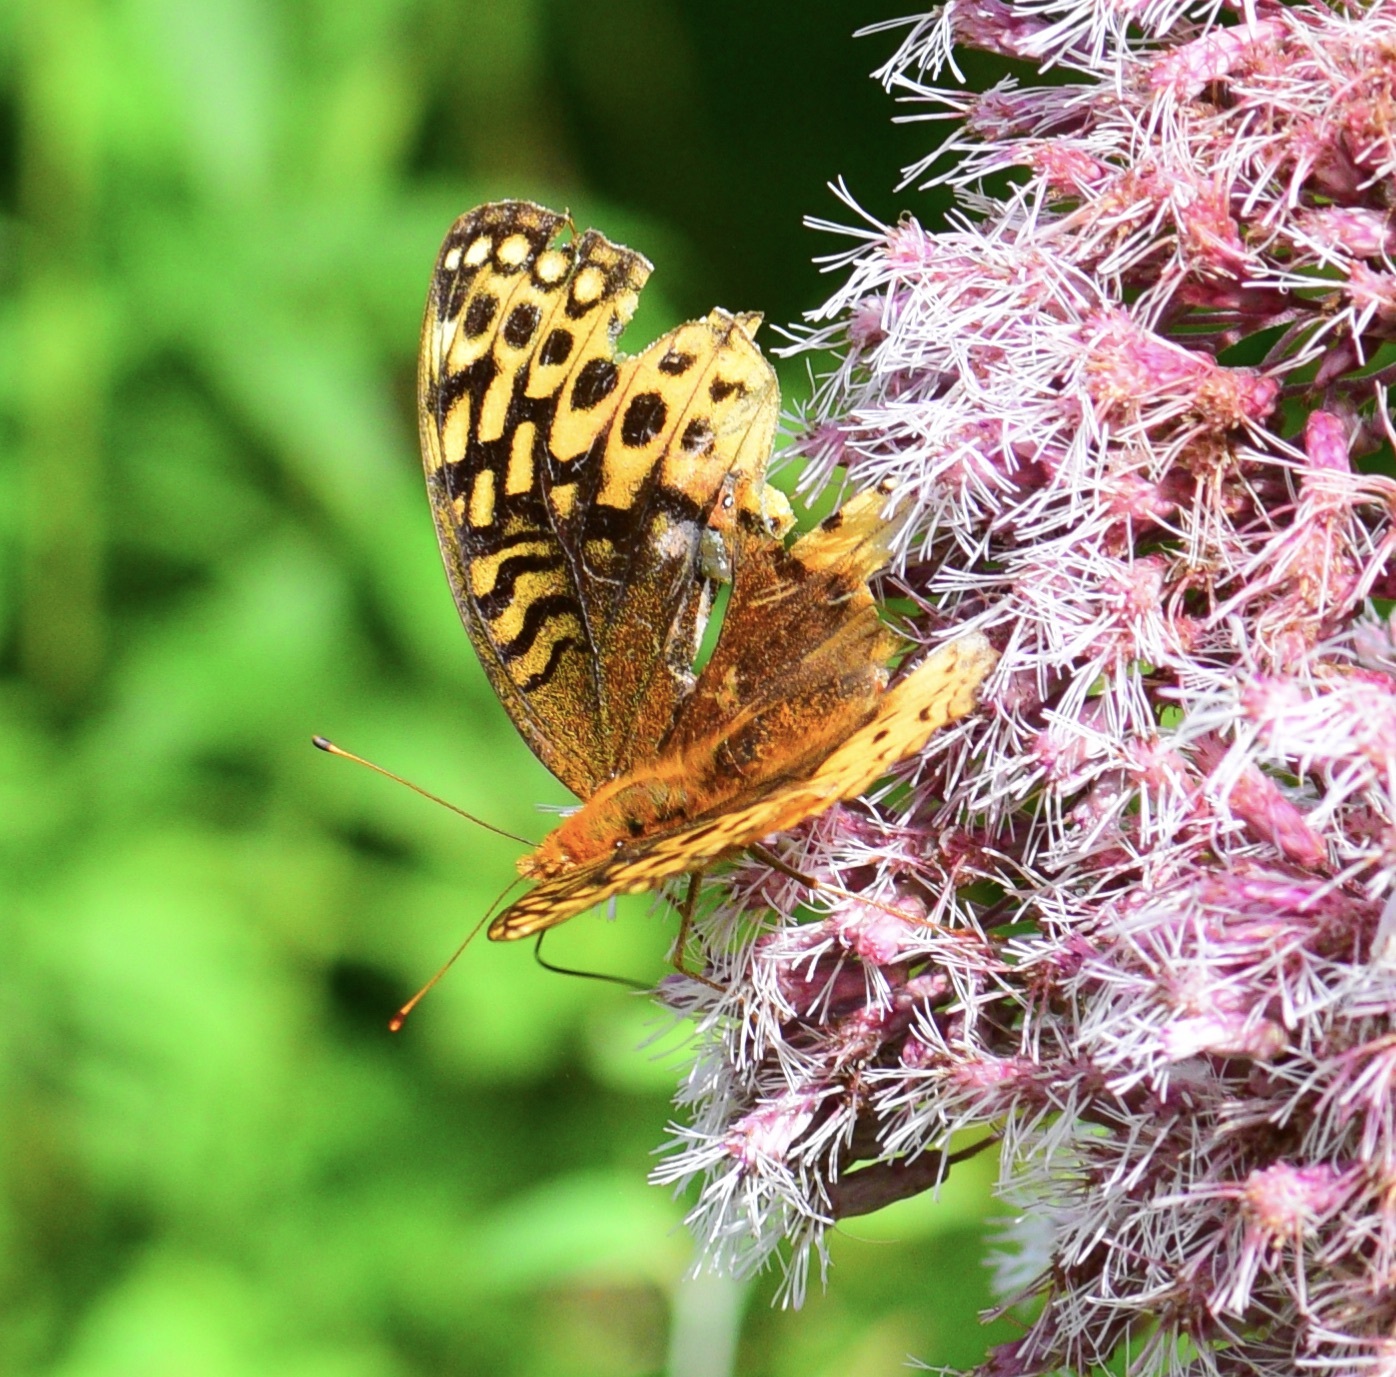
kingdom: Animalia
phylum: Arthropoda
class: Insecta
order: Lepidoptera
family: Nymphalidae
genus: Speyeria
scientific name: Speyeria cybele
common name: Great spangled fritillary
